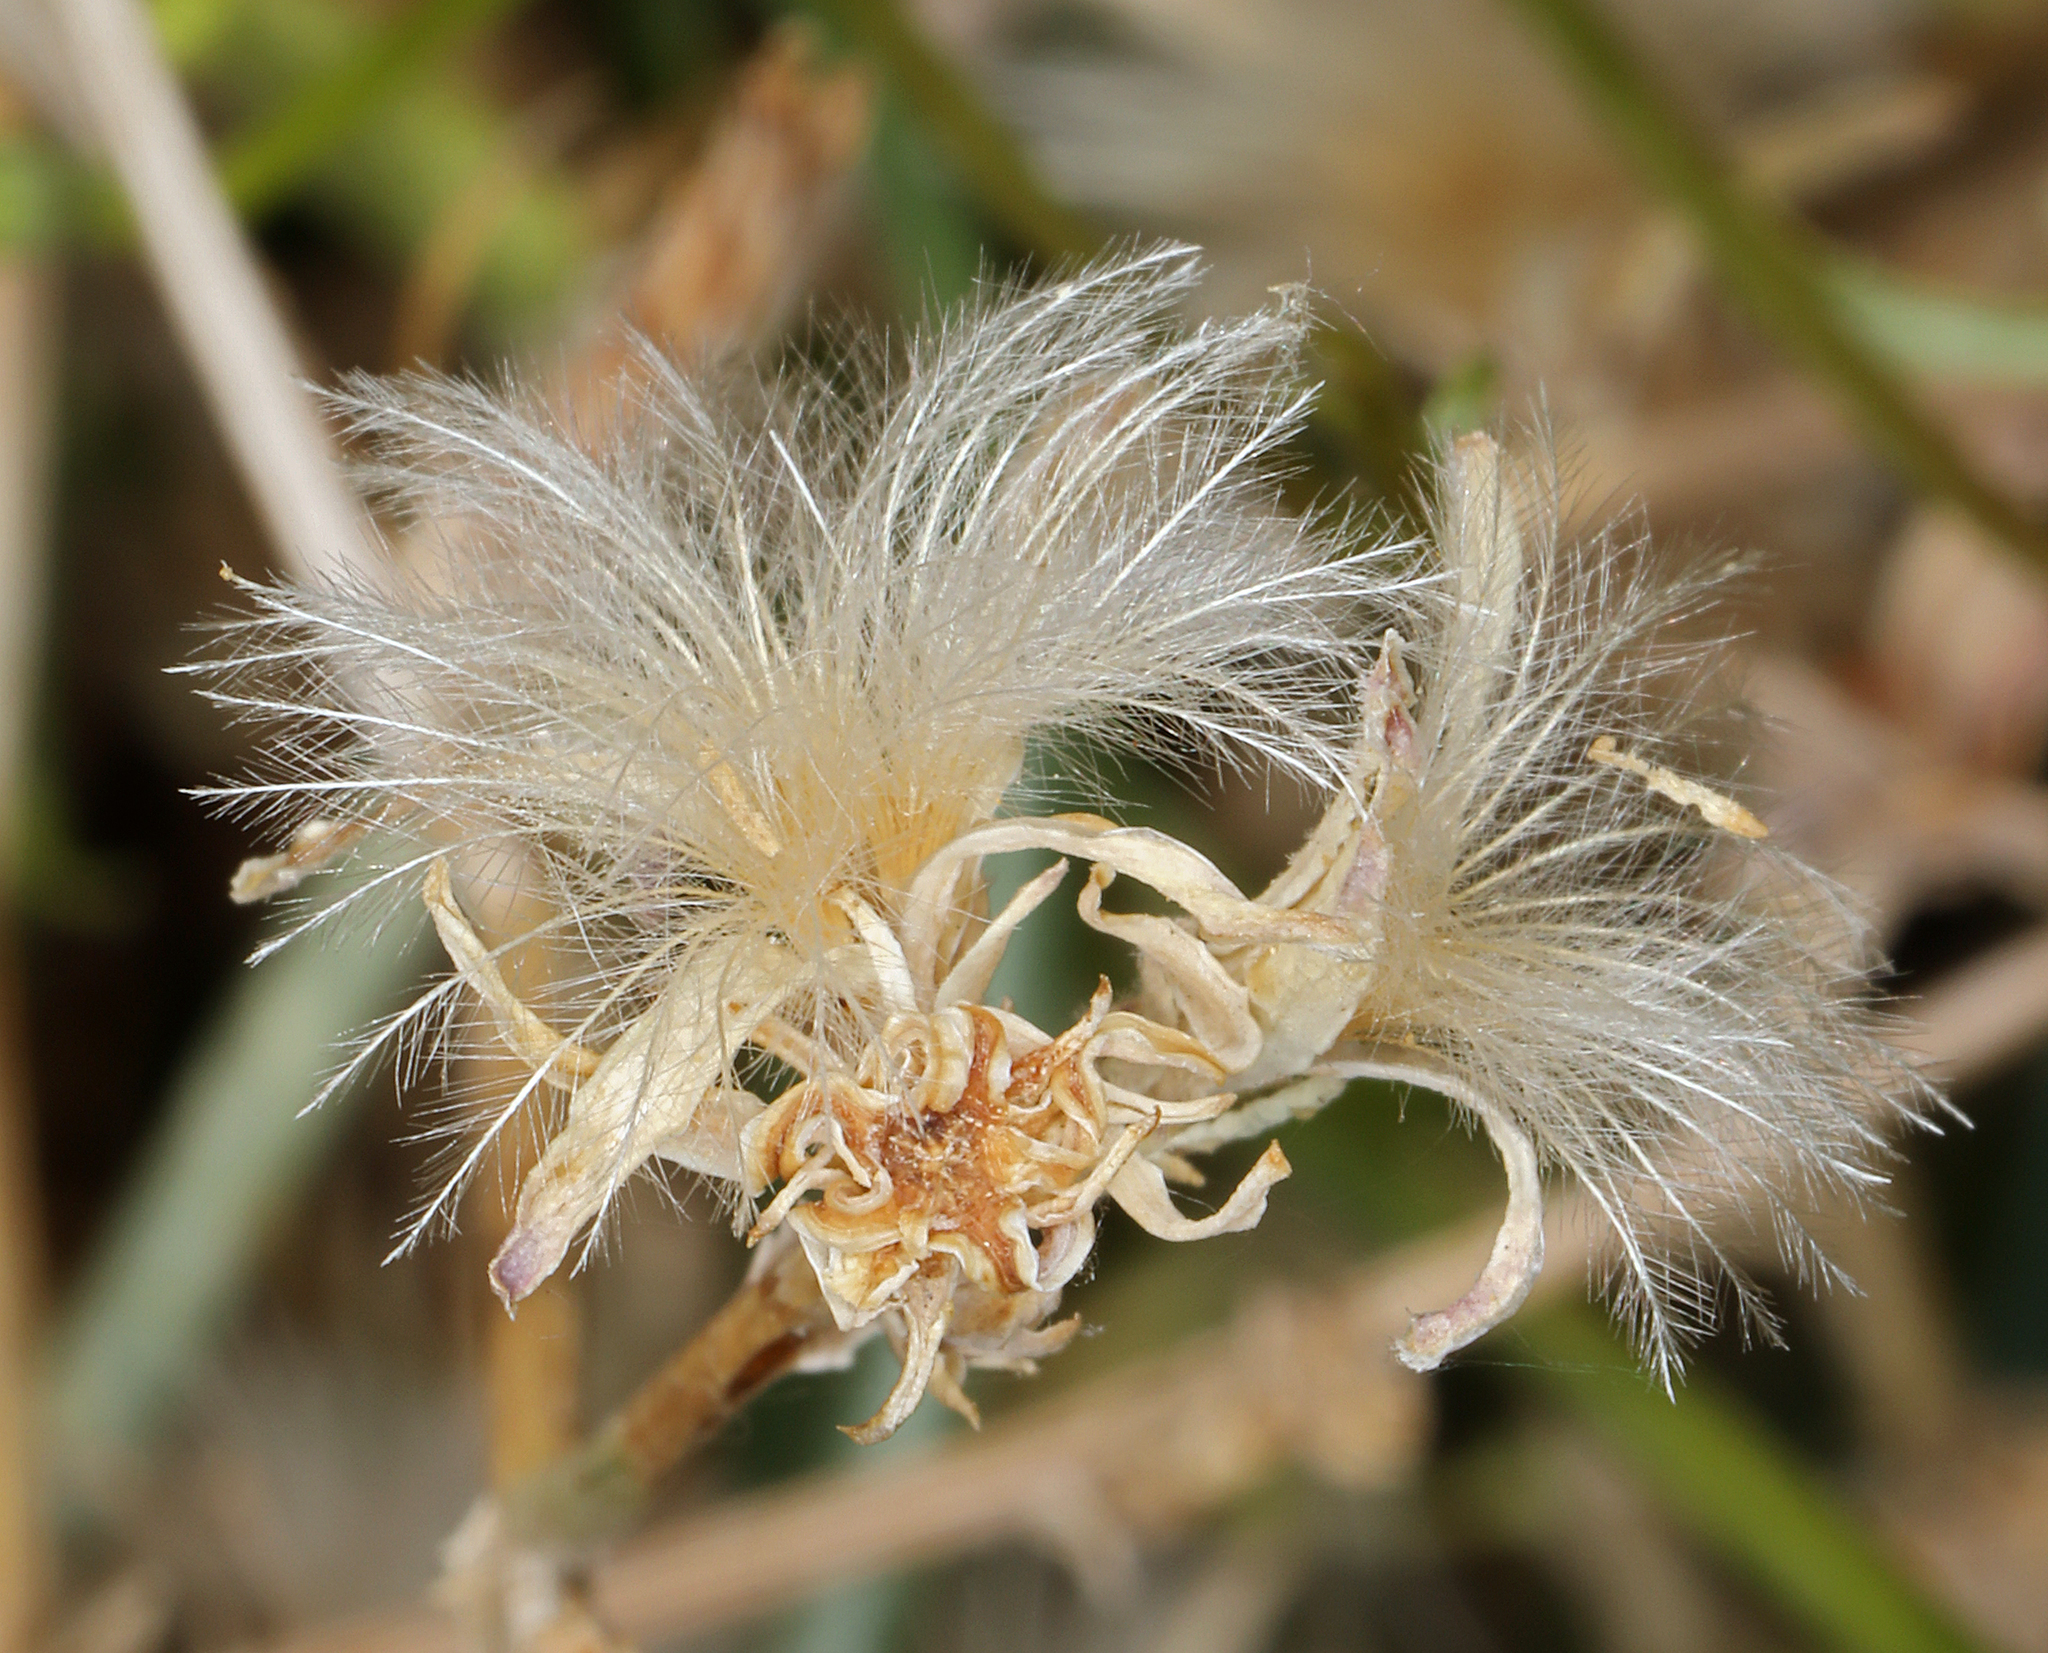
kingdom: Plantae
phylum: Tracheophyta
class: Magnoliopsida
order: Asterales
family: Asteraceae
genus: Stephanomeria
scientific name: Stephanomeria pauciflora
